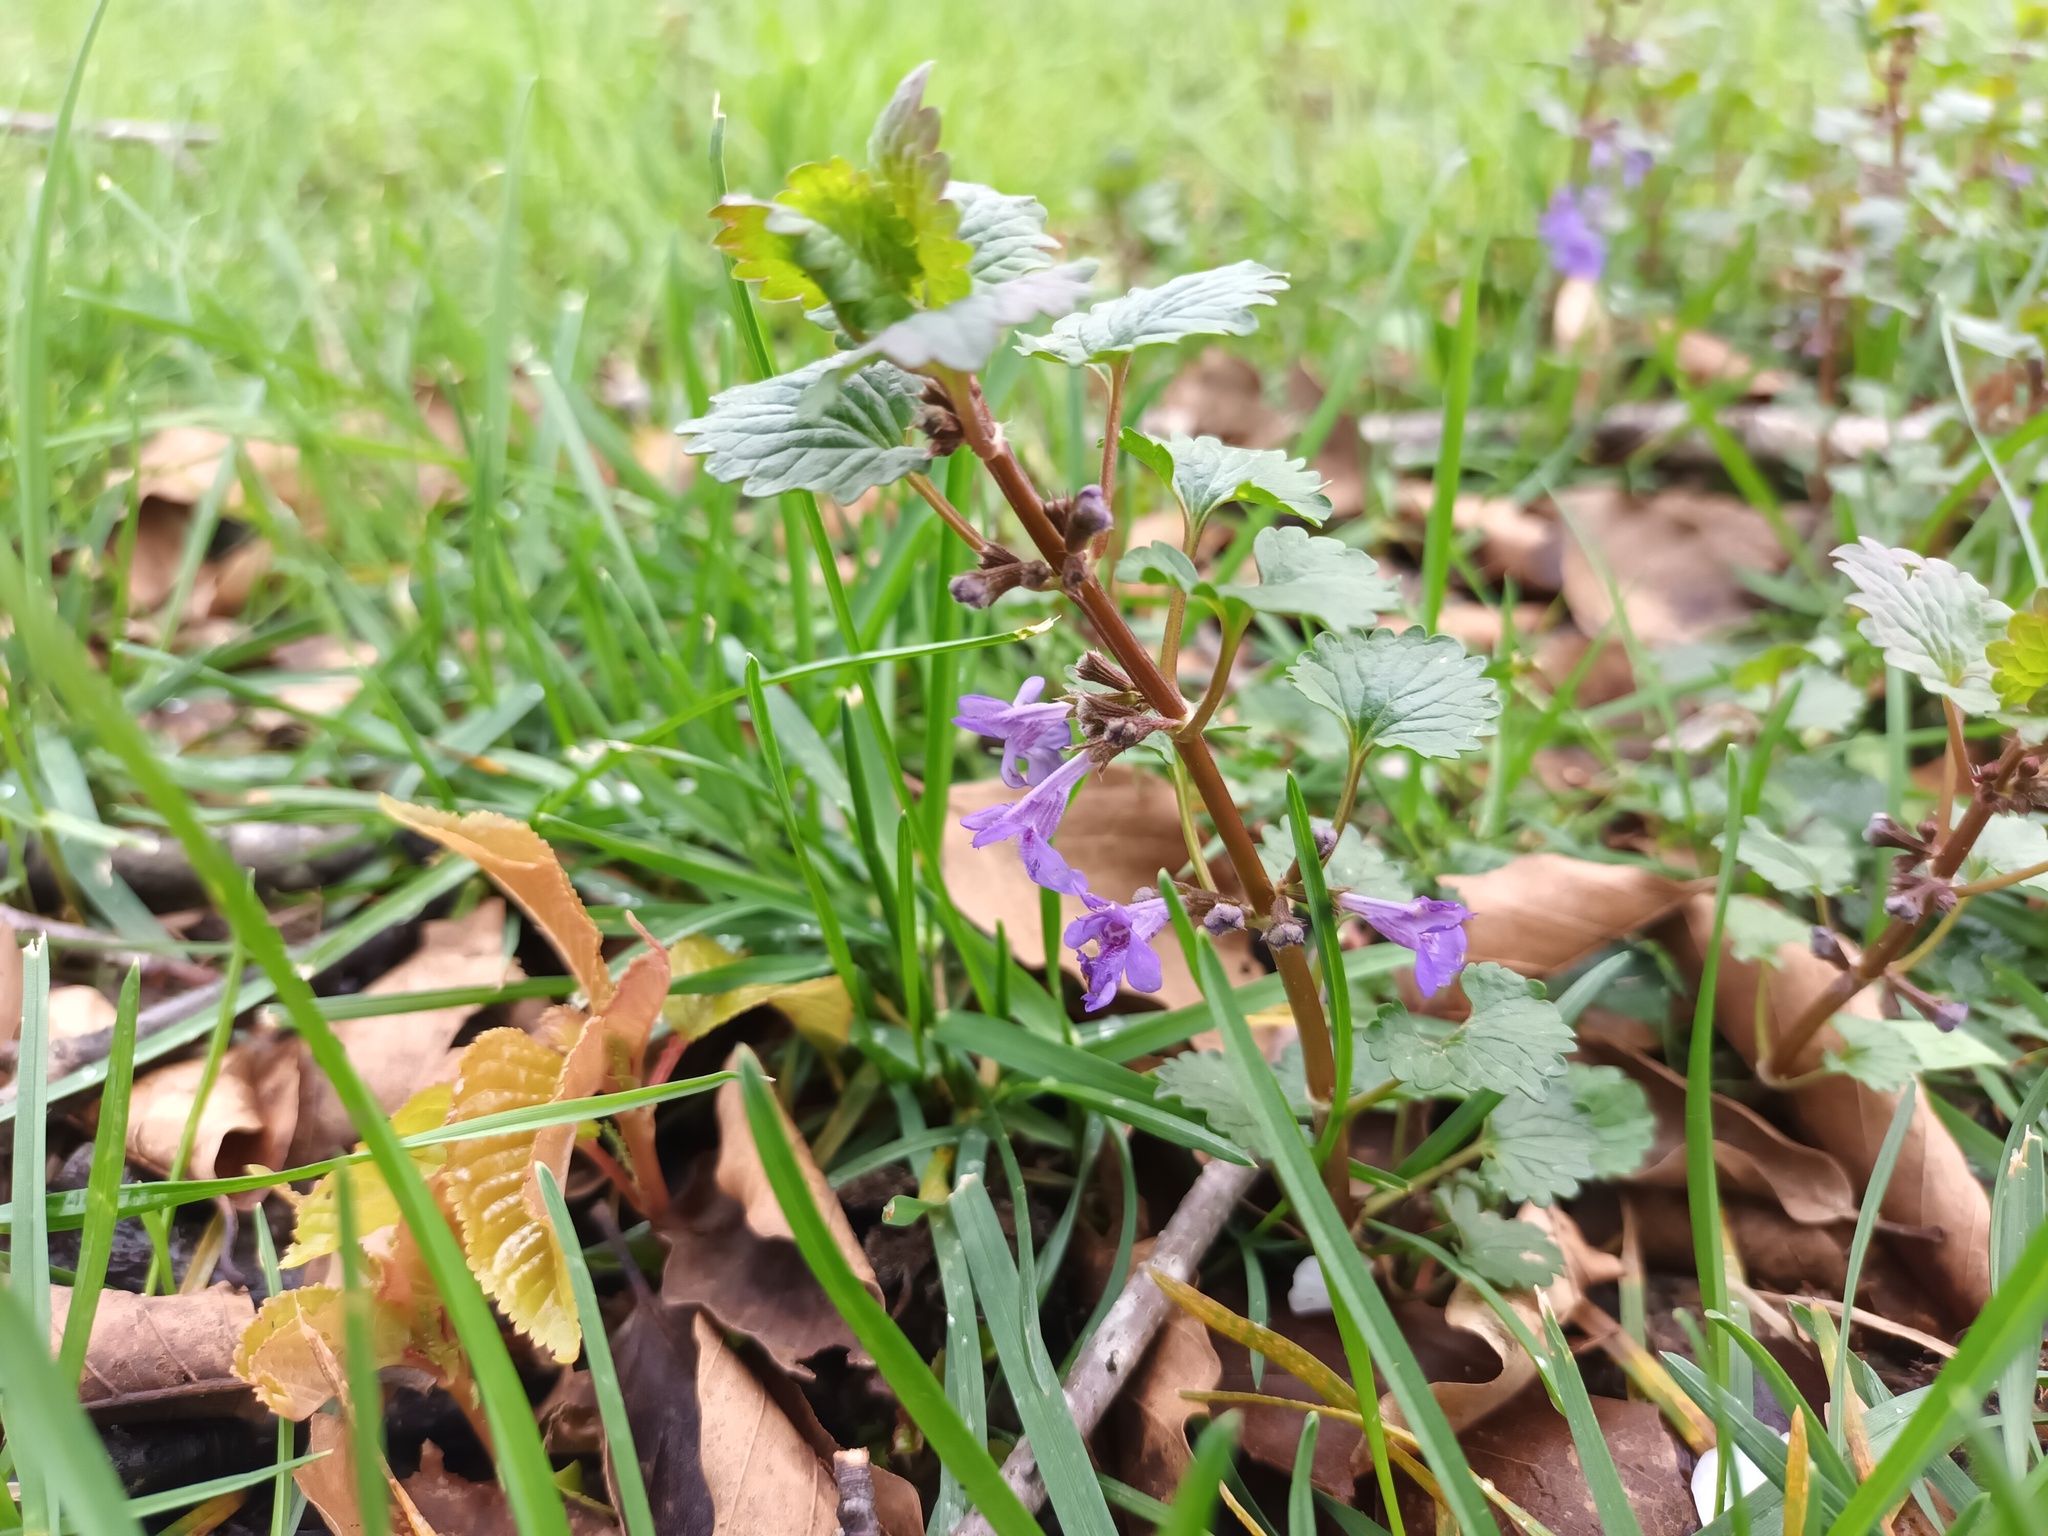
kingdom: Plantae
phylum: Tracheophyta
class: Magnoliopsida
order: Lamiales
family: Lamiaceae
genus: Glechoma
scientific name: Glechoma hederacea
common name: Ground ivy
